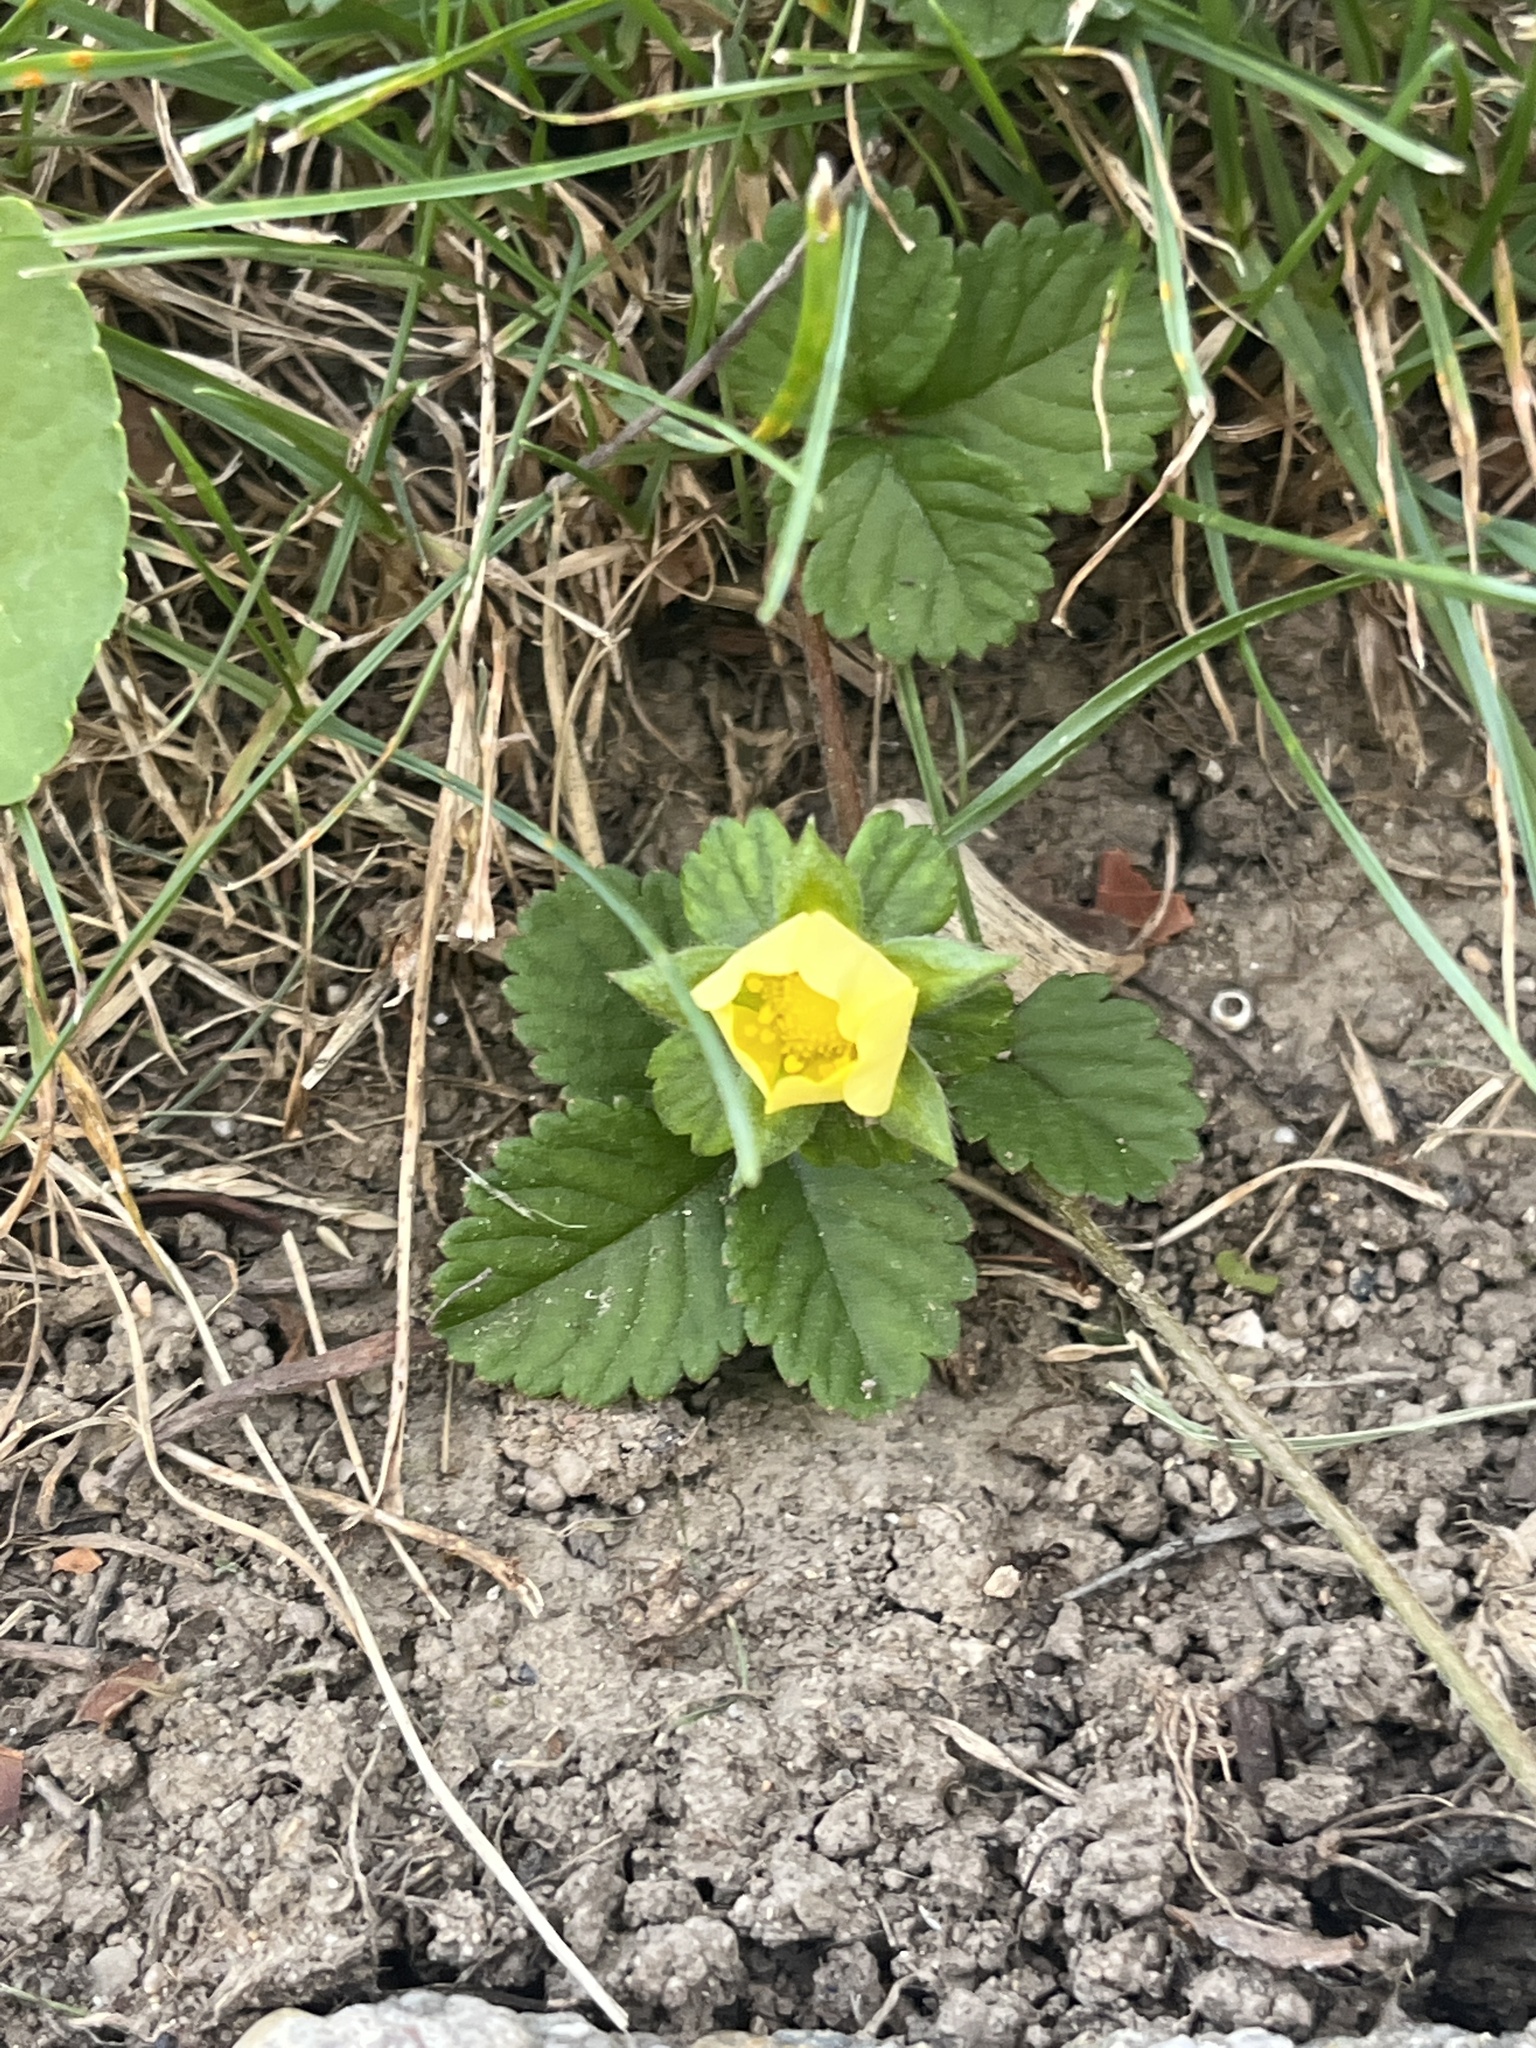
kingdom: Plantae
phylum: Tracheophyta
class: Magnoliopsida
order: Rosales
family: Rosaceae
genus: Potentilla
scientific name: Potentilla indica
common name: Yellow-flowered strawberry
